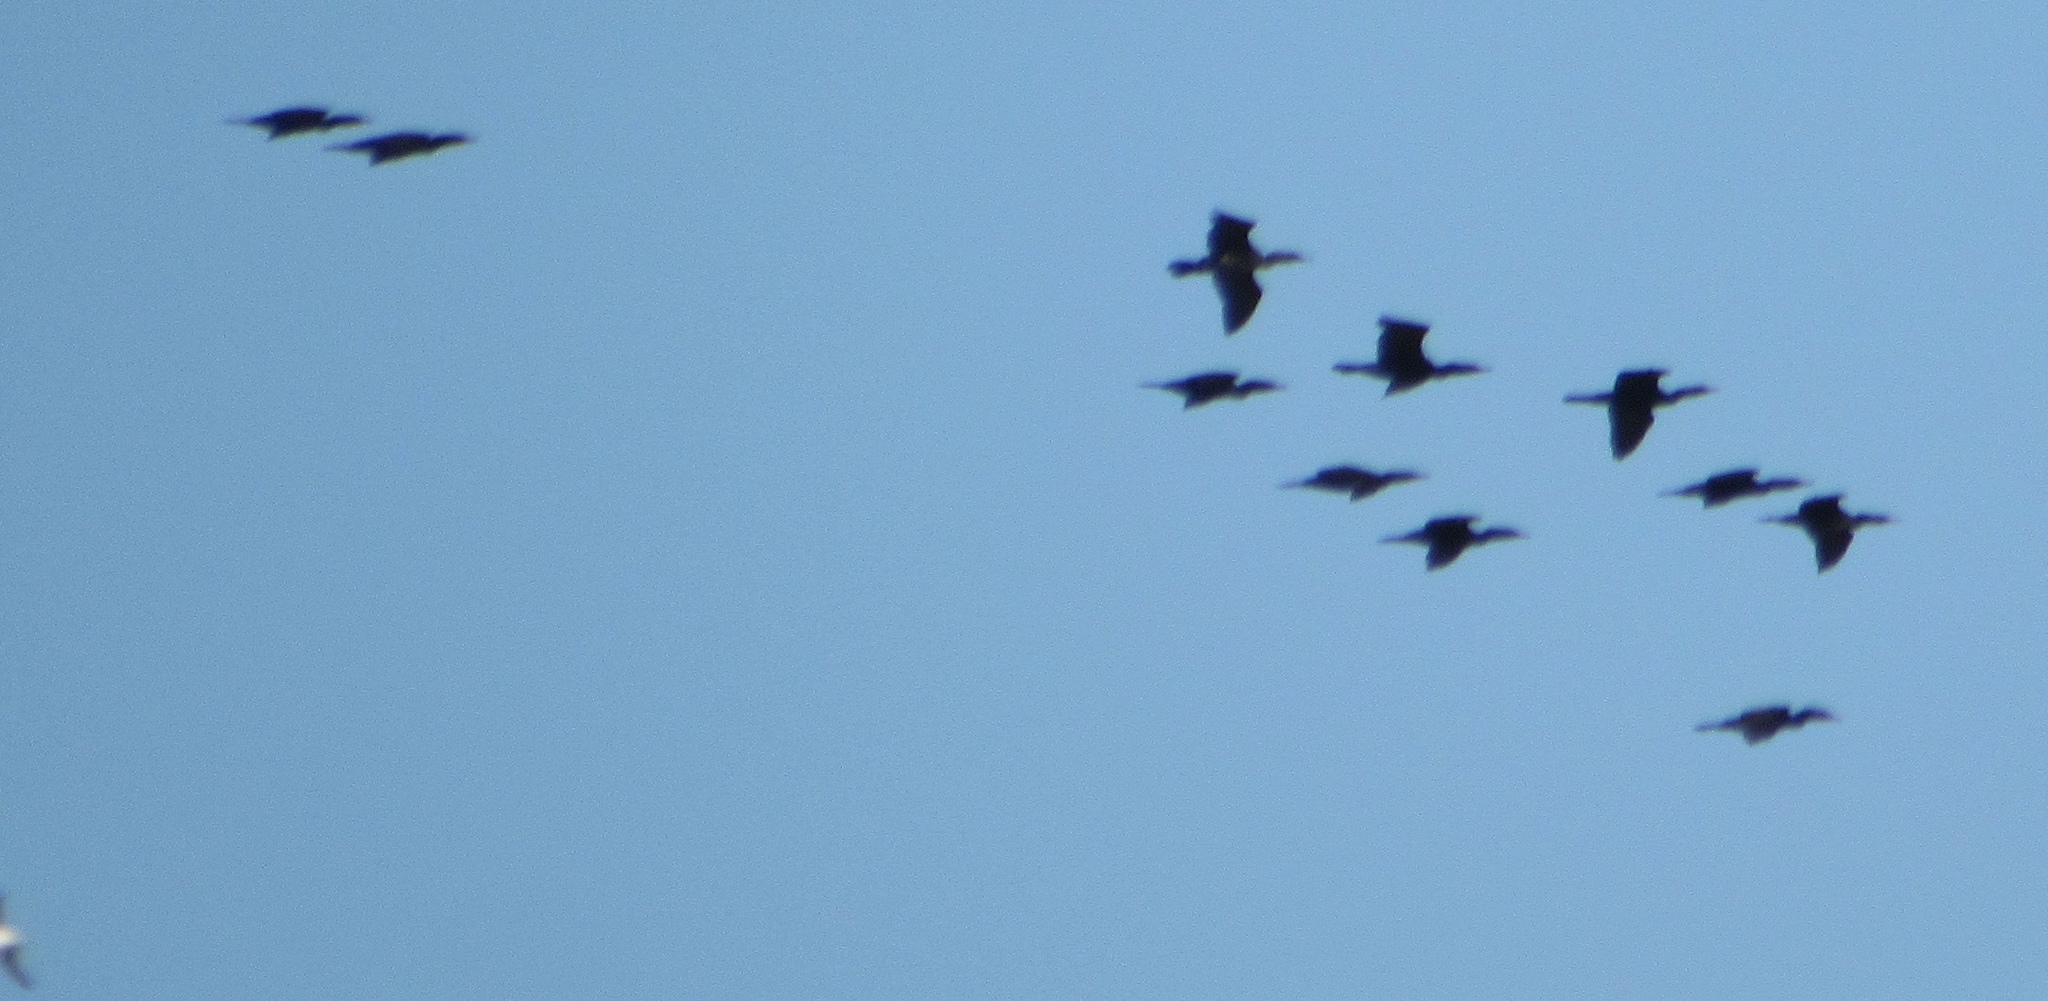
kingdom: Animalia
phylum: Chordata
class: Aves
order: Suliformes
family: Phalacrocoracidae
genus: Phalacrocorax
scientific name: Phalacrocorax auritus
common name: Double-crested cormorant
